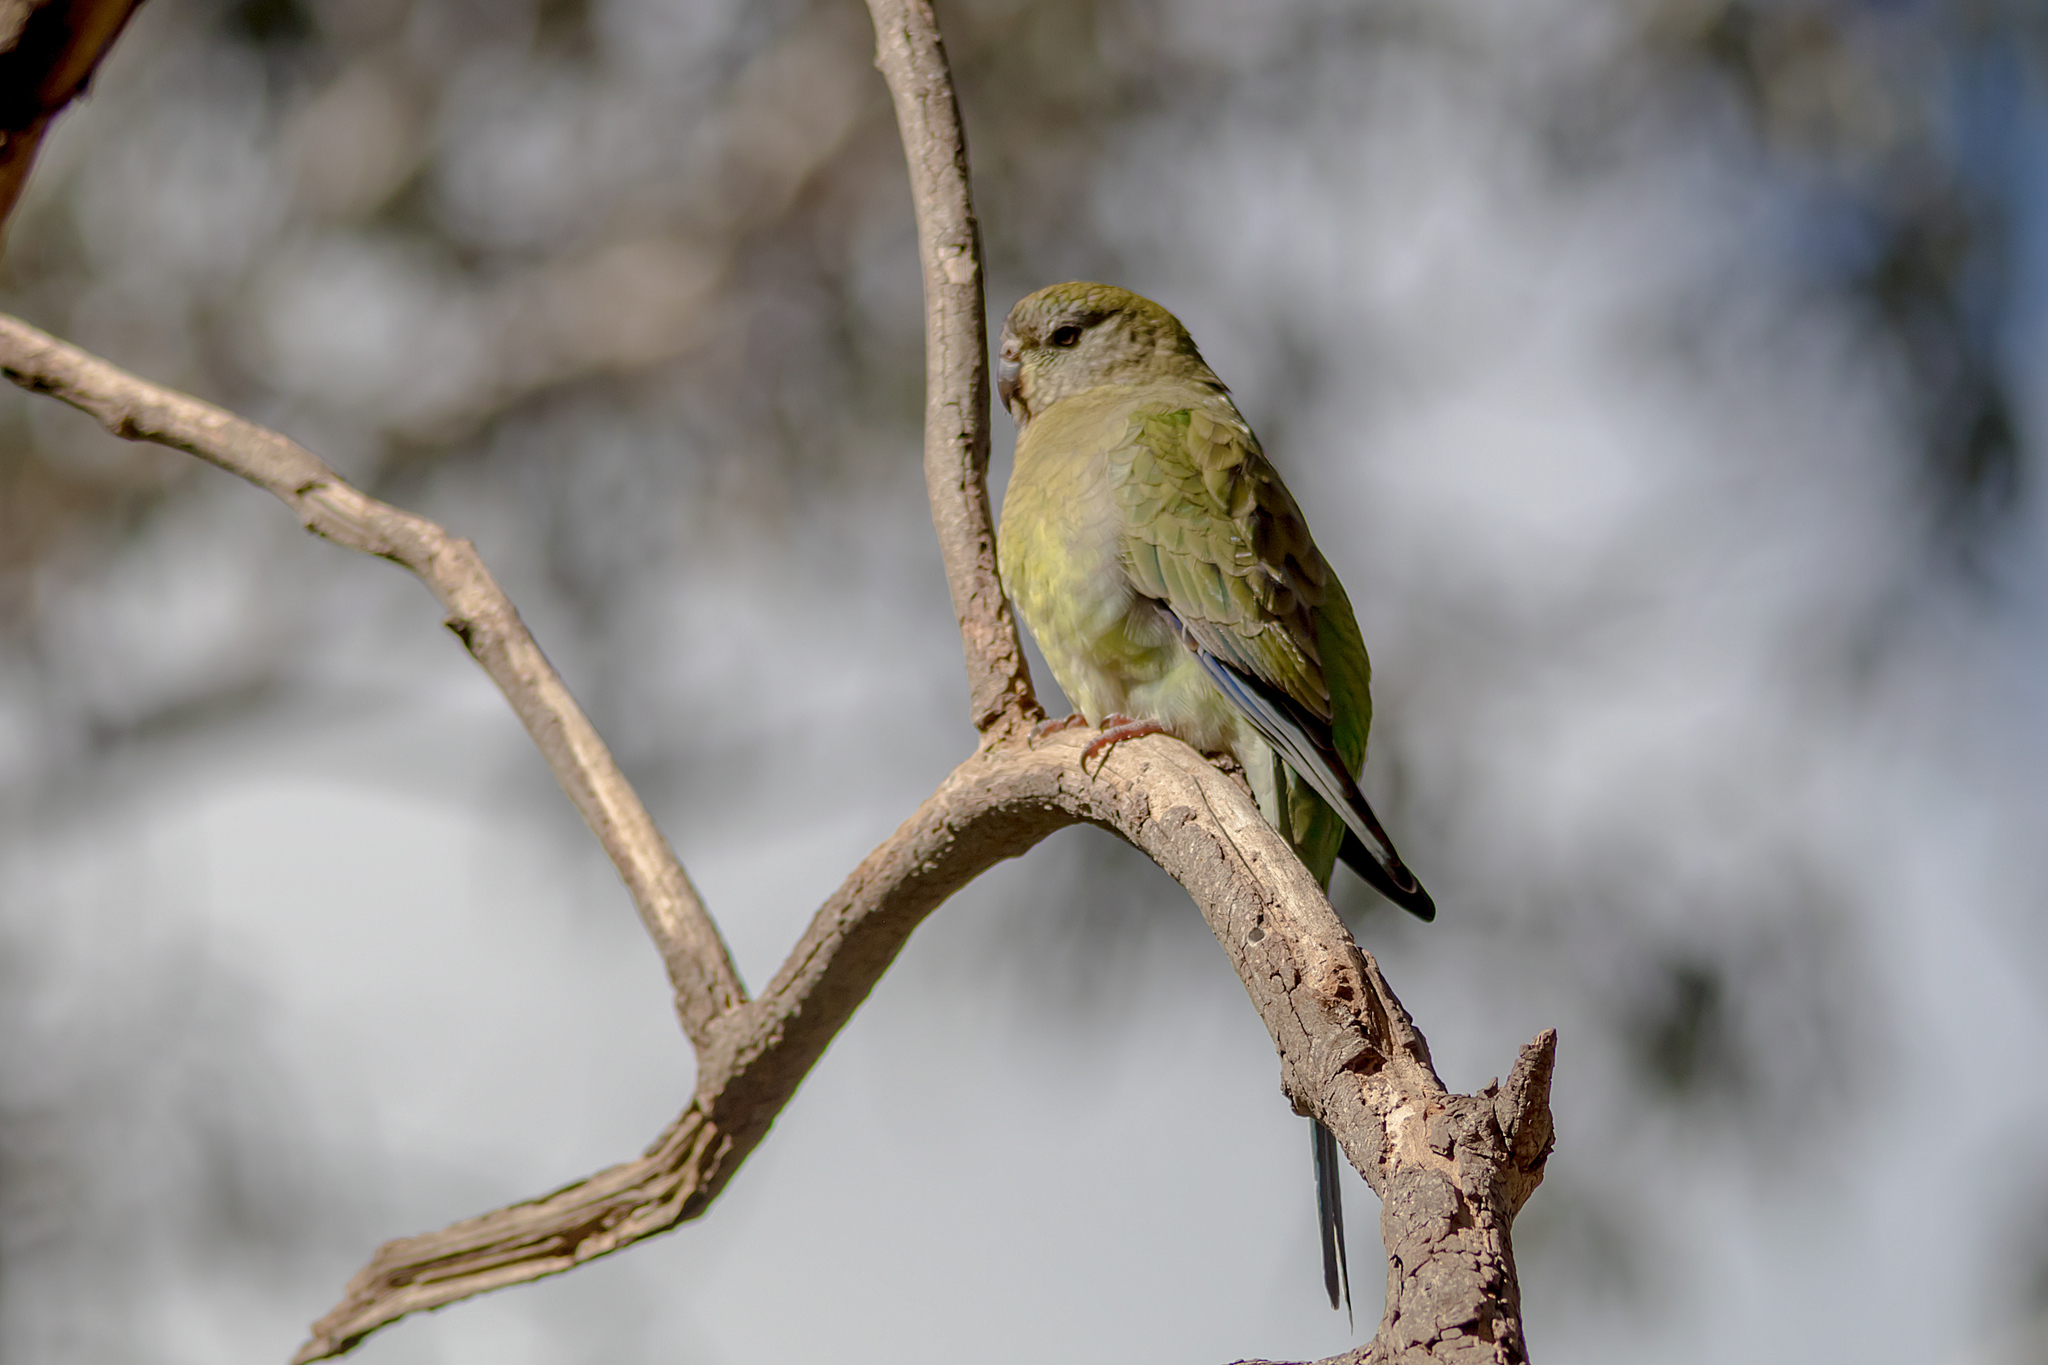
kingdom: Animalia
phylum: Chordata
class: Aves
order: Psittaciformes
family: Psittacidae
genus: Psephotus
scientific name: Psephotus haematonotus
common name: Red-rumped parrot
